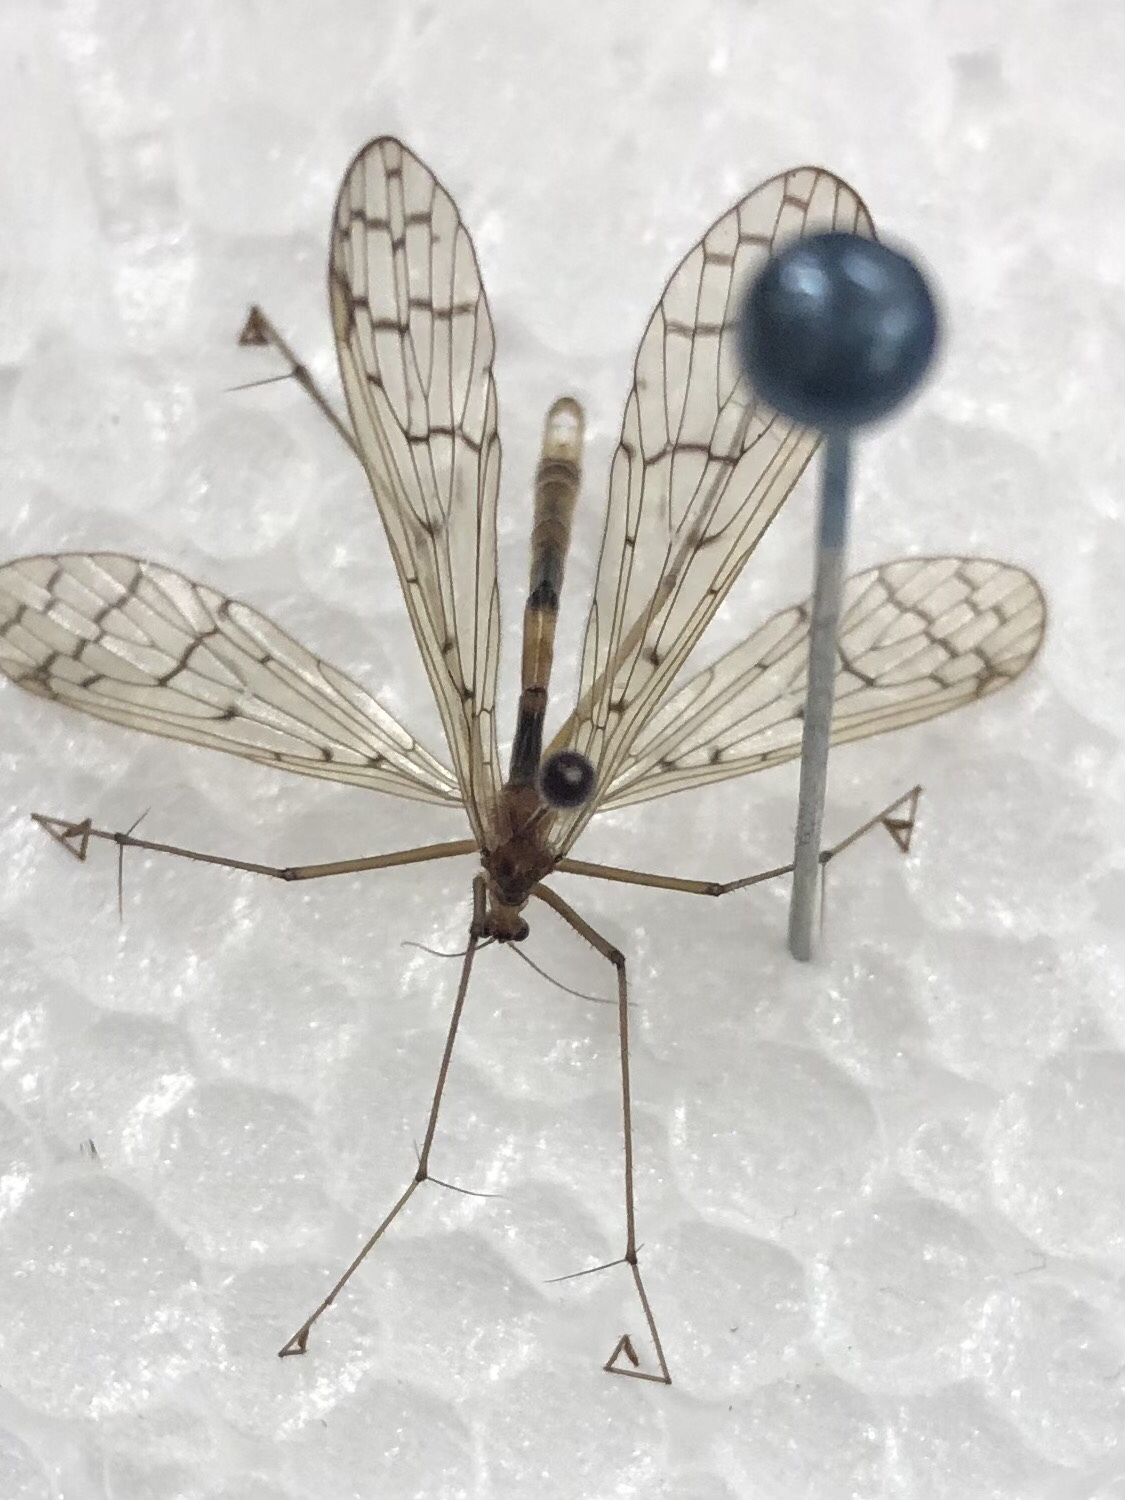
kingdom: Animalia
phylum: Arthropoda
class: Insecta
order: Mecoptera
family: Bittacidae
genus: Bittacus
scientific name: Bittacus strigosus
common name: Thin hangingfly
